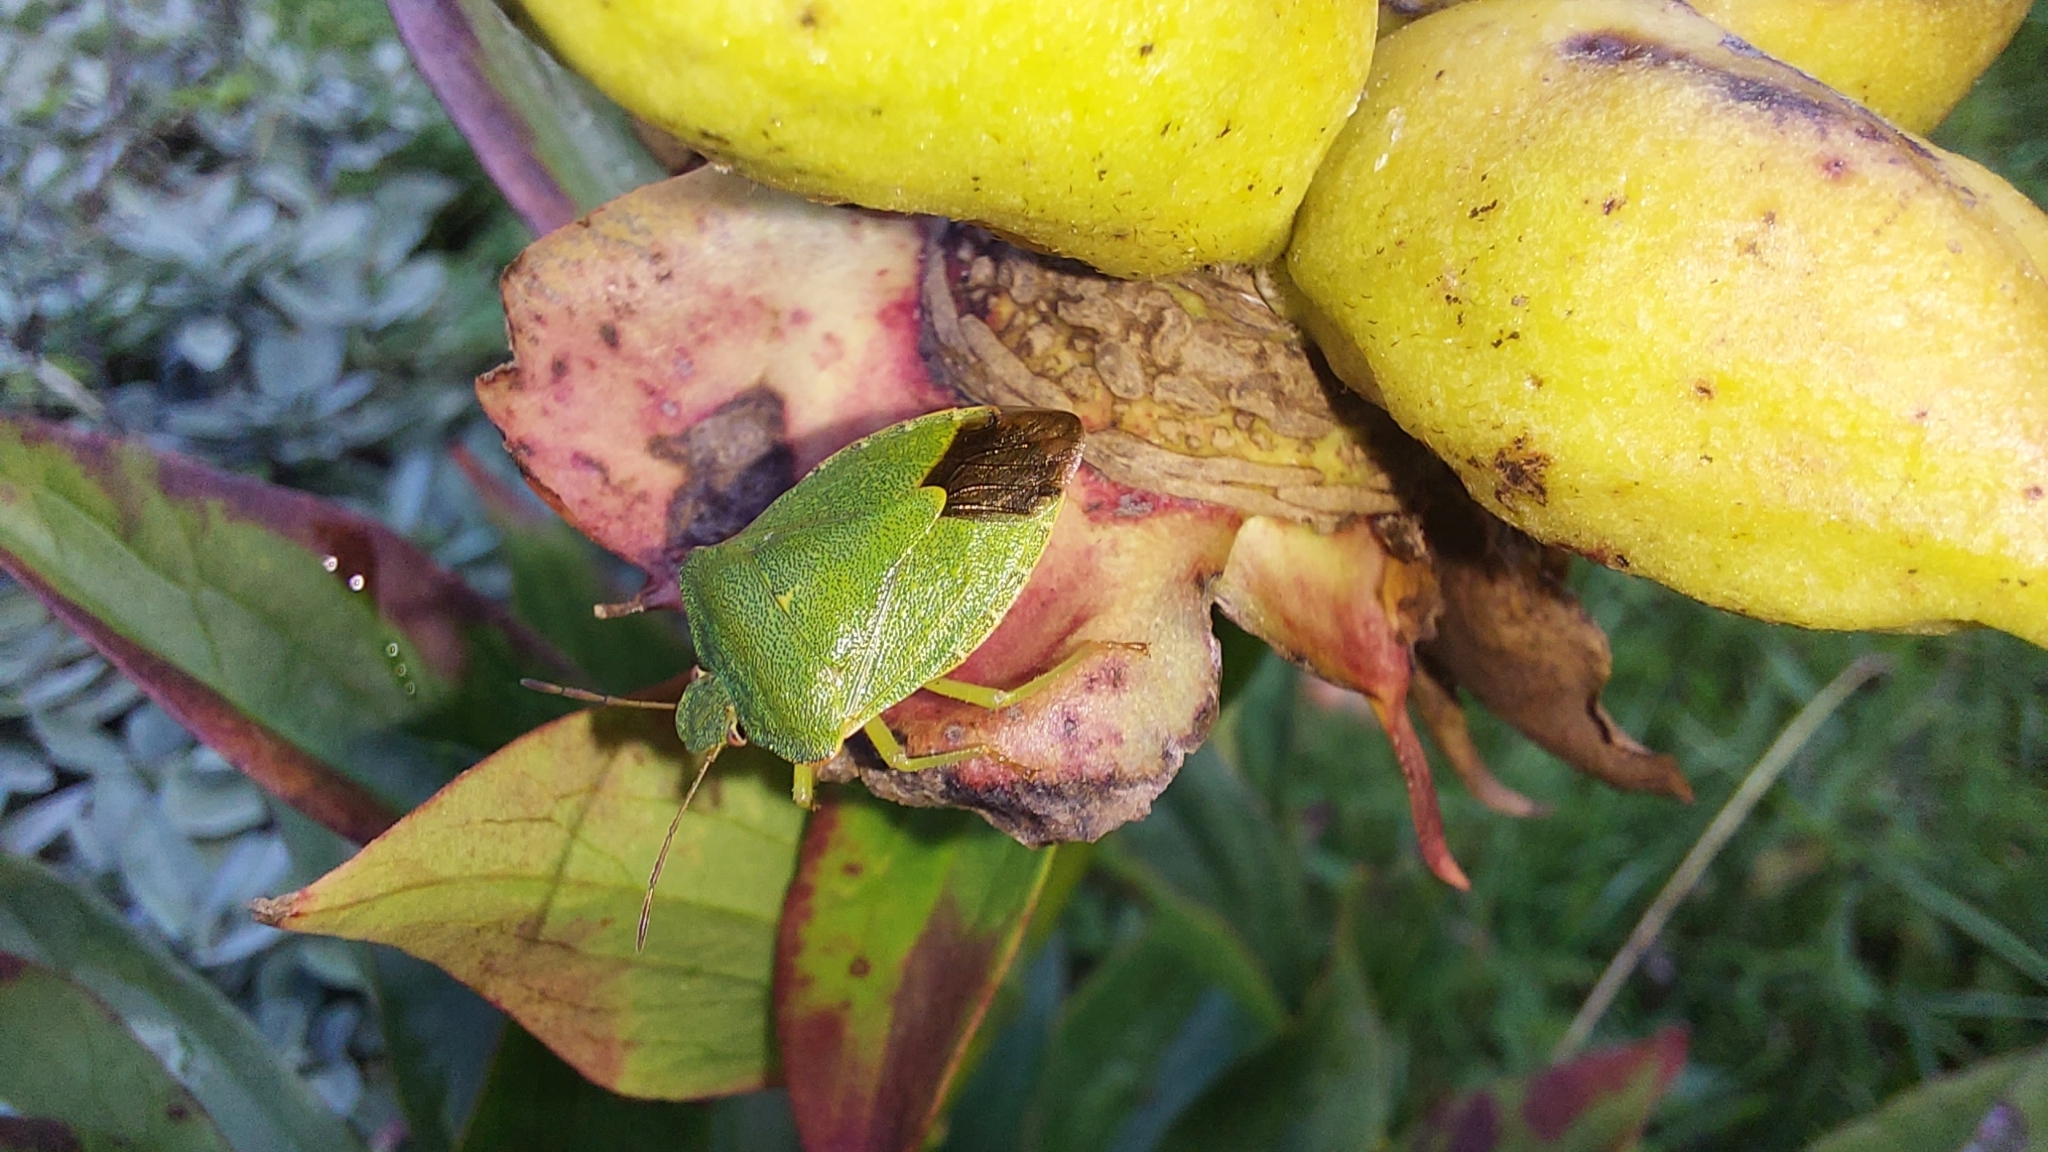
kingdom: Animalia
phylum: Arthropoda
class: Insecta
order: Hemiptera
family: Pentatomidae
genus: Palomena
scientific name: Palomena prasina
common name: Green shieldbug
